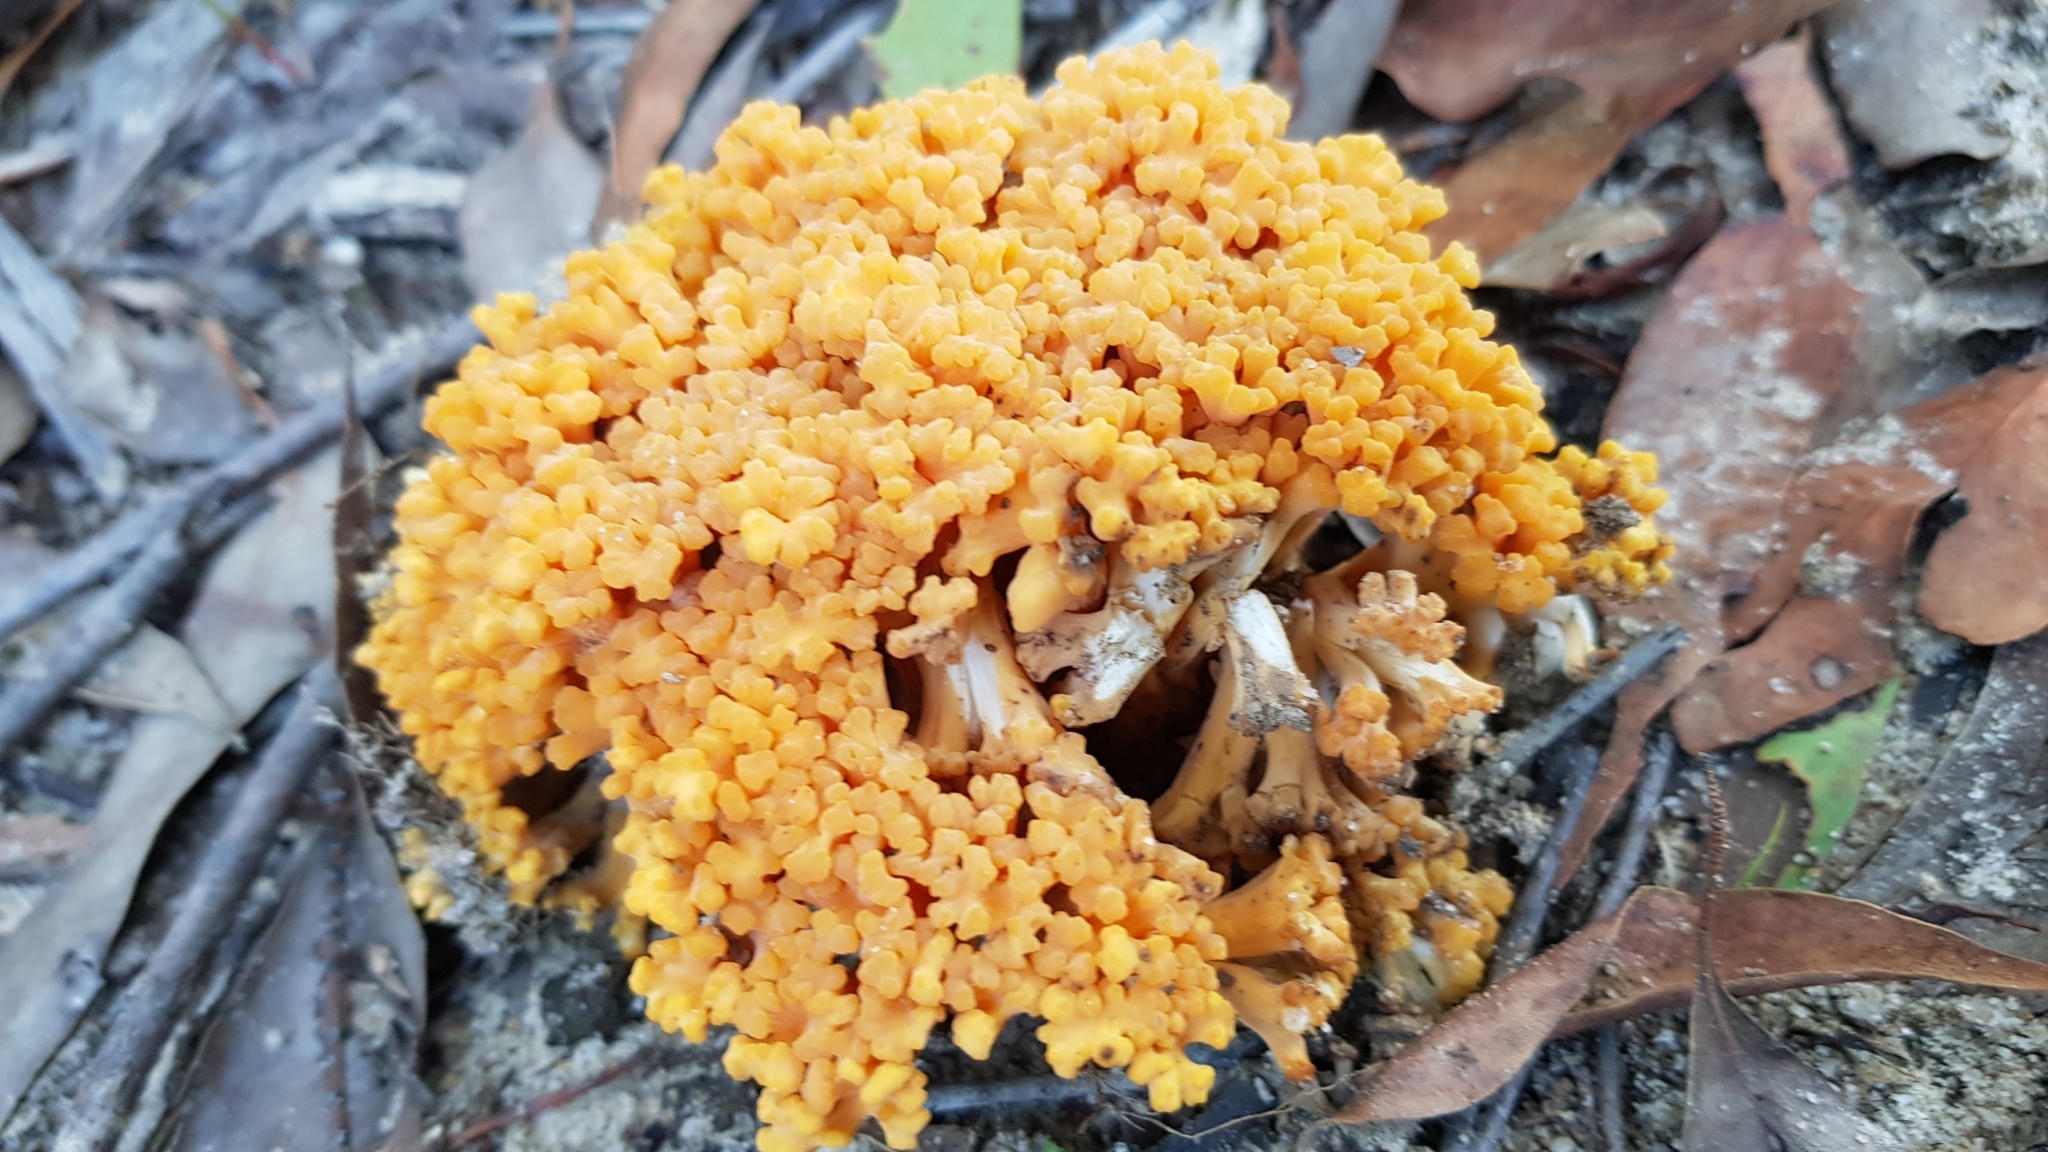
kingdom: Fungi
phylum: Basidiomycota
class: Agaricomycetes
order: Gomphales
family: Gomphaceae
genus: Ramaria
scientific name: Ramaria capitata
